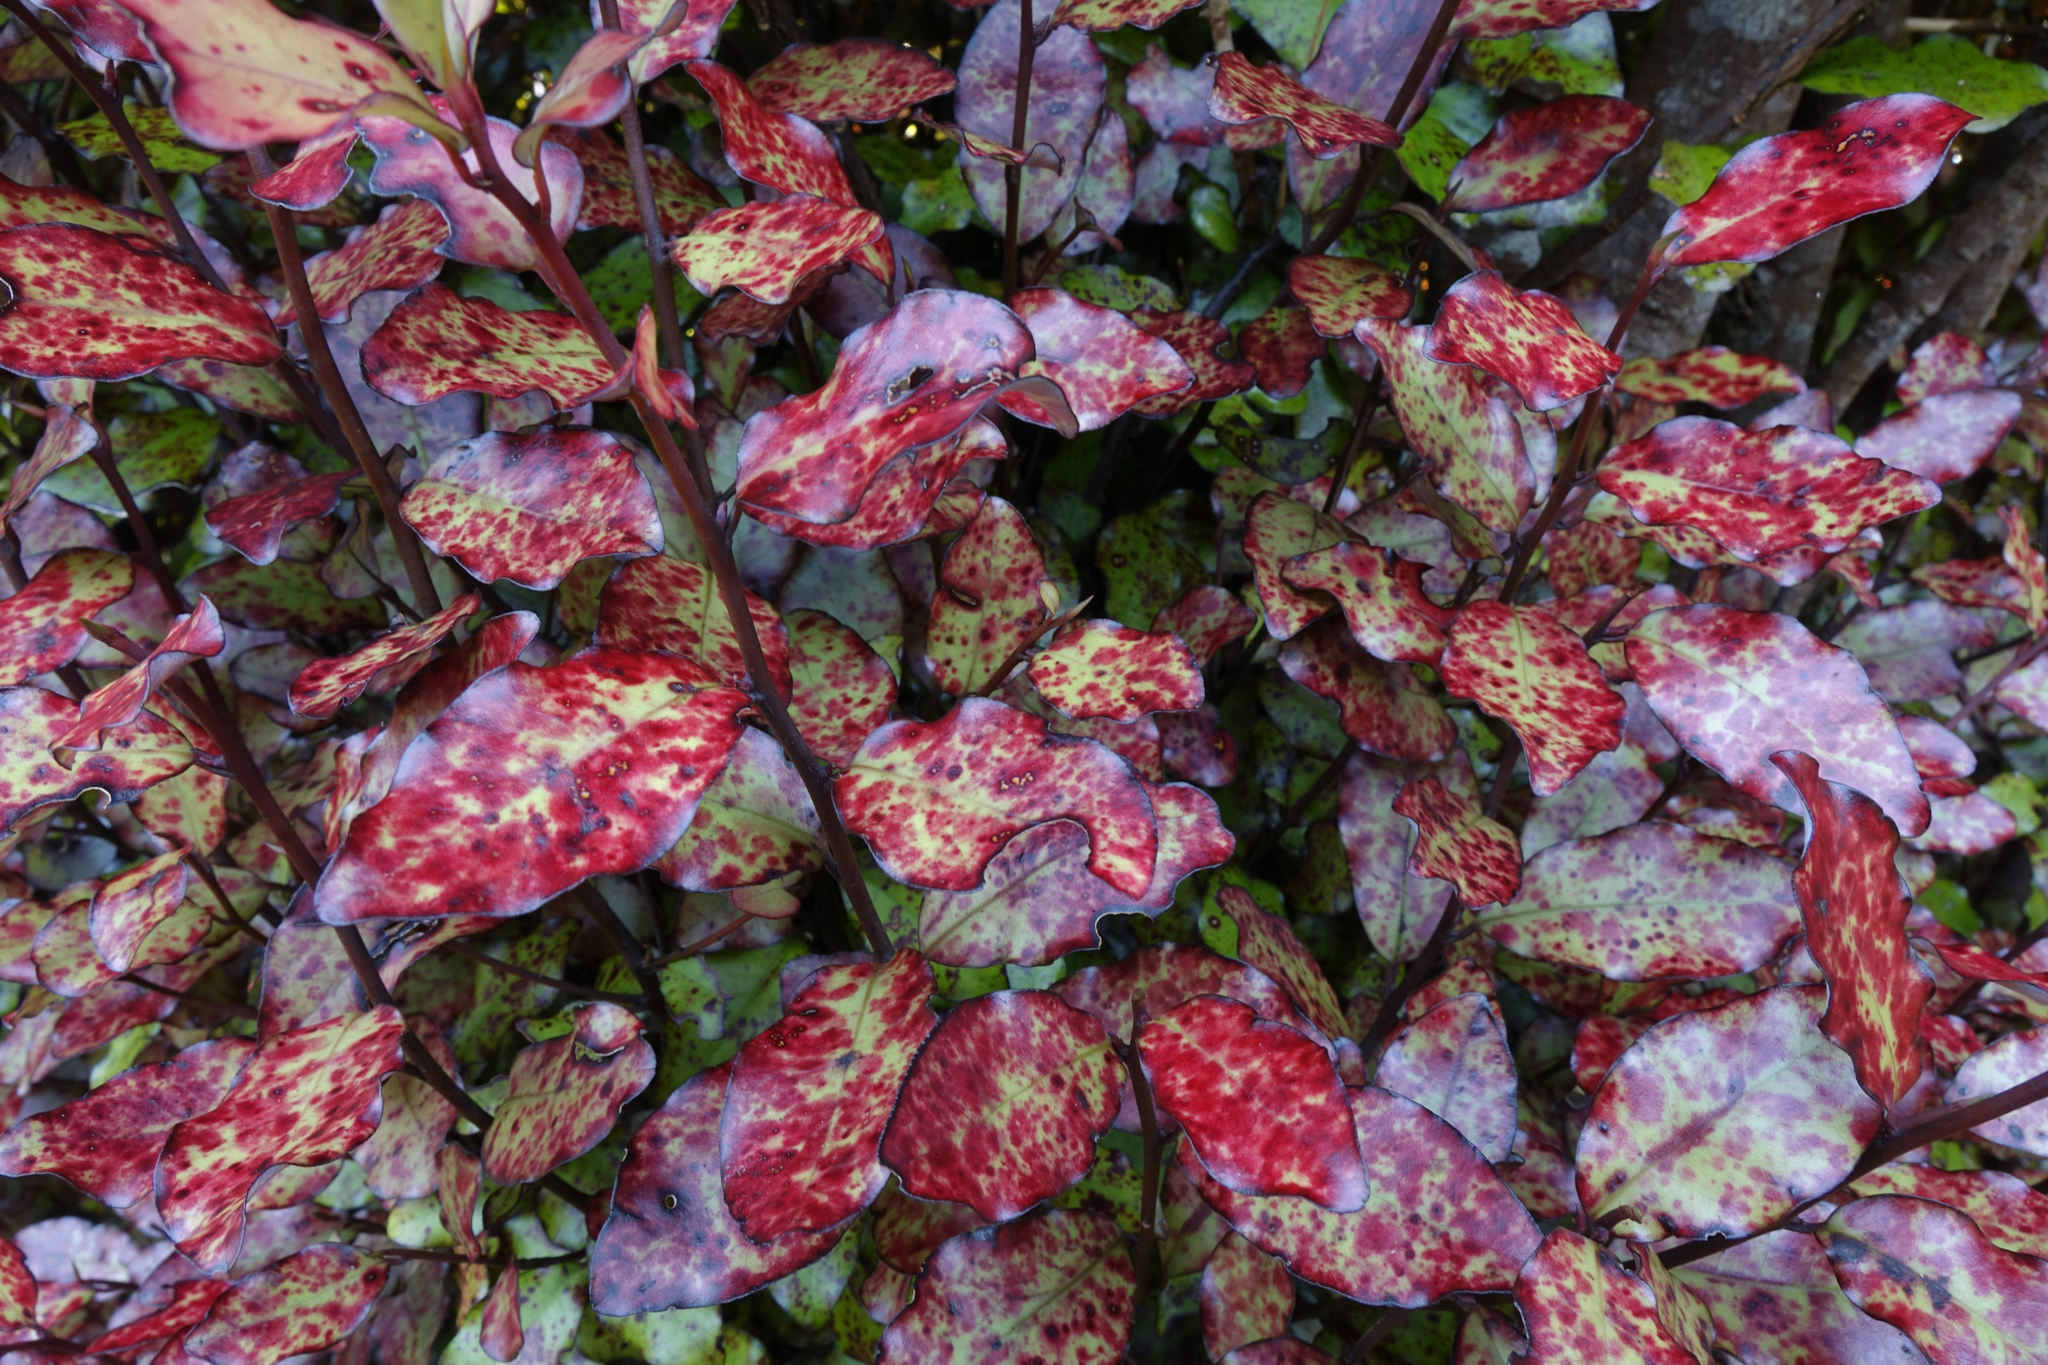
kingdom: Plantae
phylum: Tracheophyta
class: Magnoliopsida
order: Canellales
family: Winteraceae
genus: Pseudowintera
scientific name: Pseudowintera colorata
